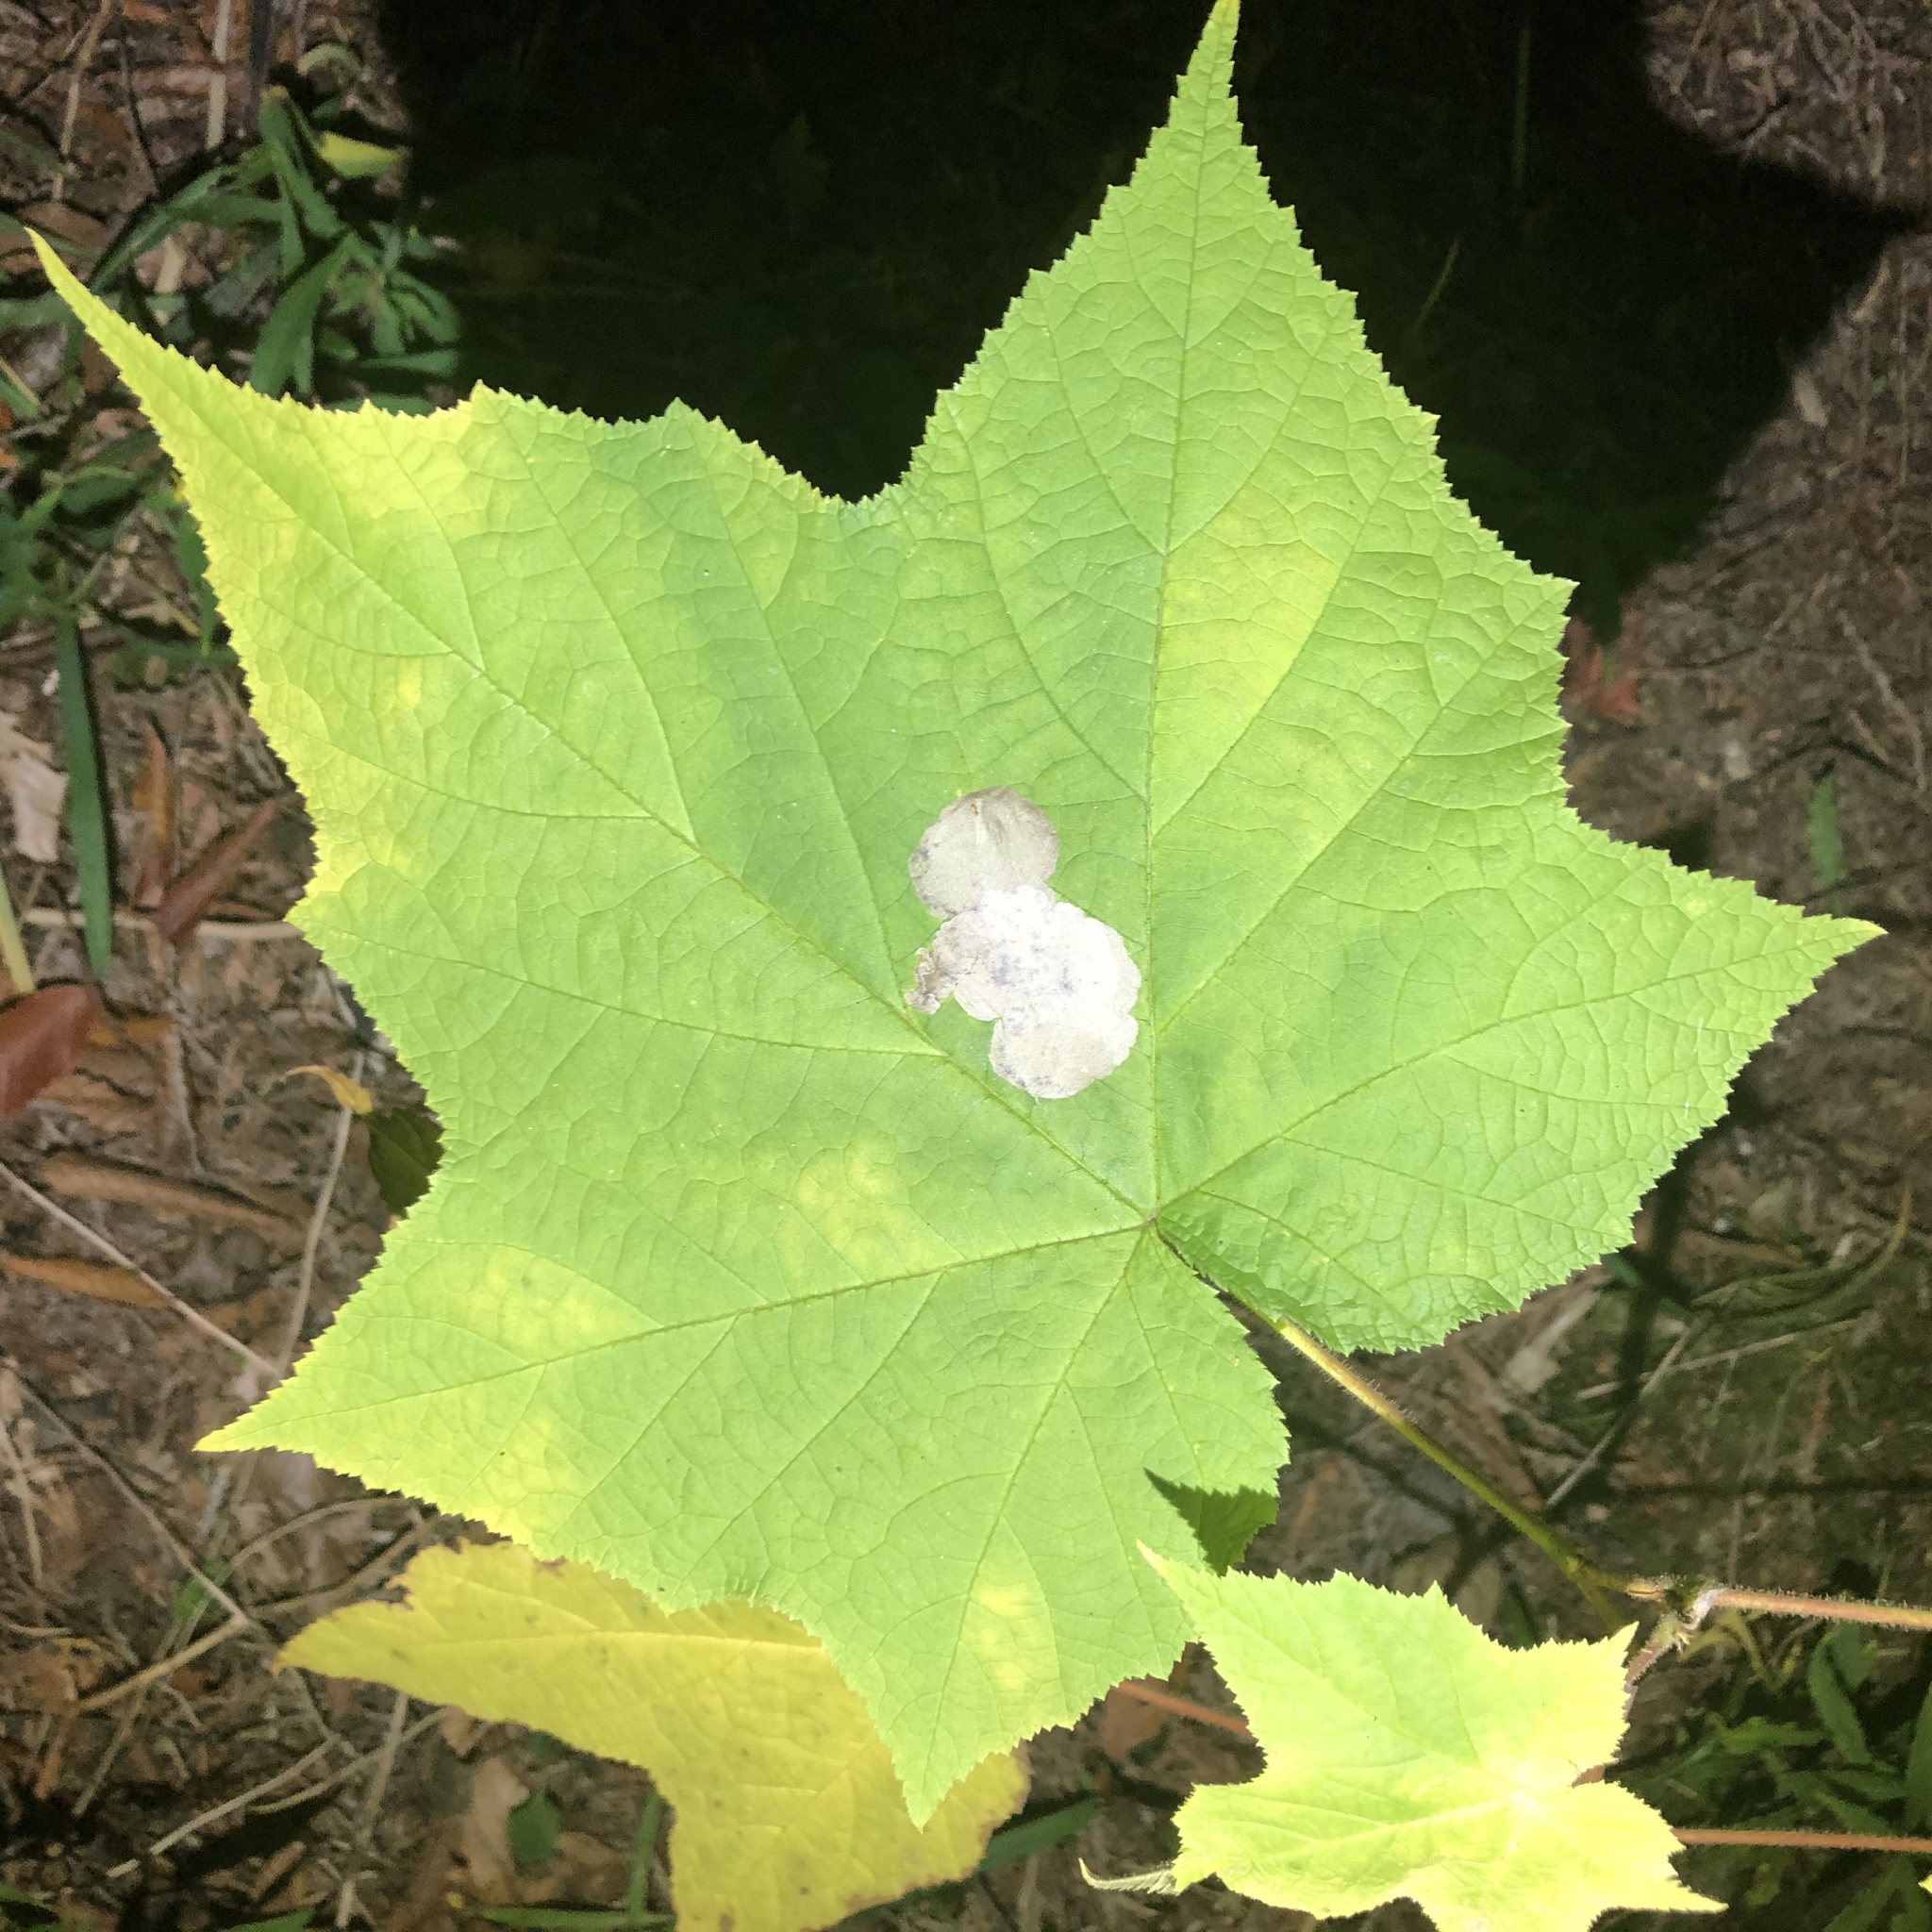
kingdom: Animalia
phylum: Arthropoda
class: Insecta
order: Hymenoptera
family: Tenthredinidae
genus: Metallus
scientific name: Metallus capitalis
